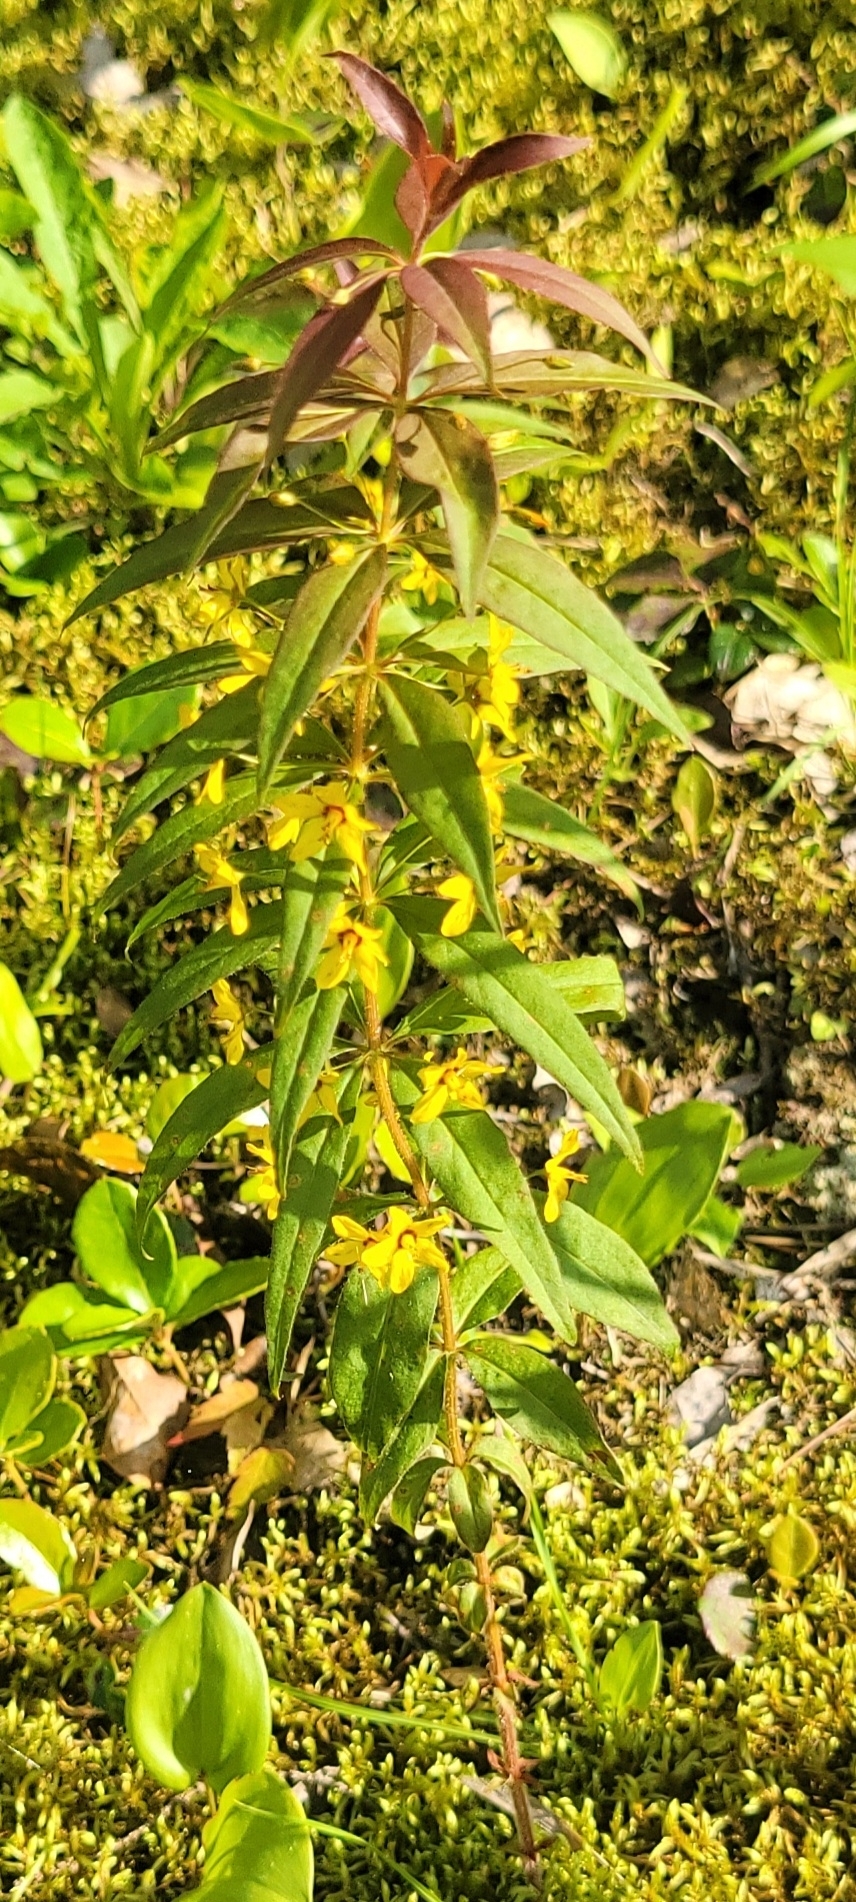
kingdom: Plantae
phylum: Tracheophyta
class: Magnoliopsida
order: Ericales
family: Primulaceae
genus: Lysimachia
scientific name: Lysimachia quadrifolia
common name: Whorled loosestrife
